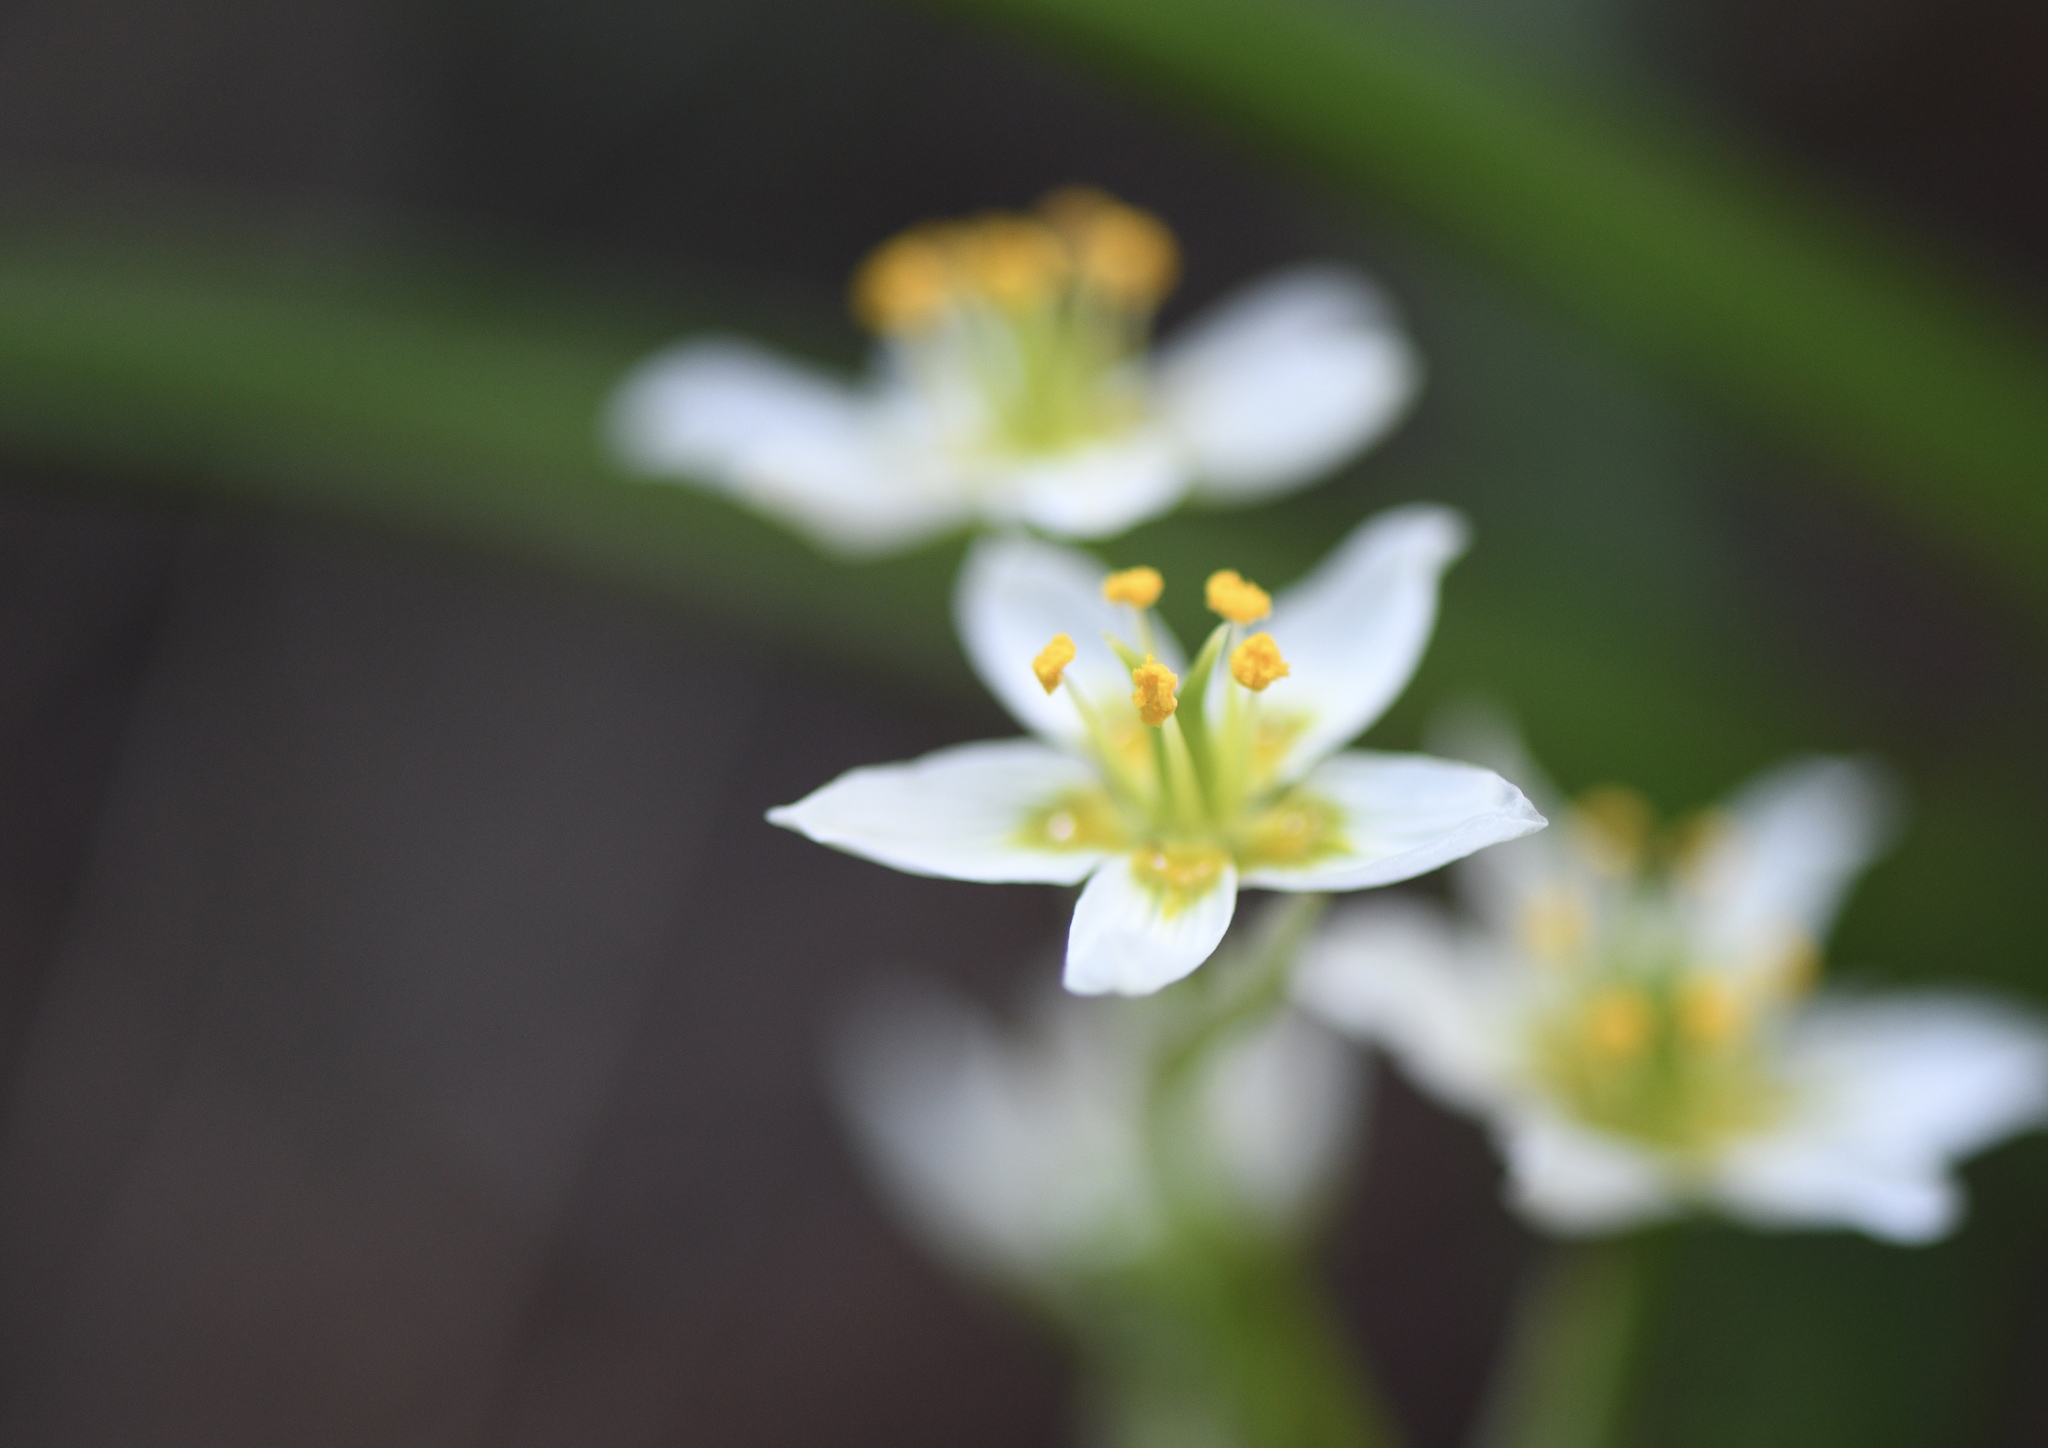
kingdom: Plantae
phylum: Tracheophyta
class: Liliopsida
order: Liliales
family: Melanthiaceae
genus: Toxicoscordion
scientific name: Toxicoscordion fremontii
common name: Fremont's death camas
